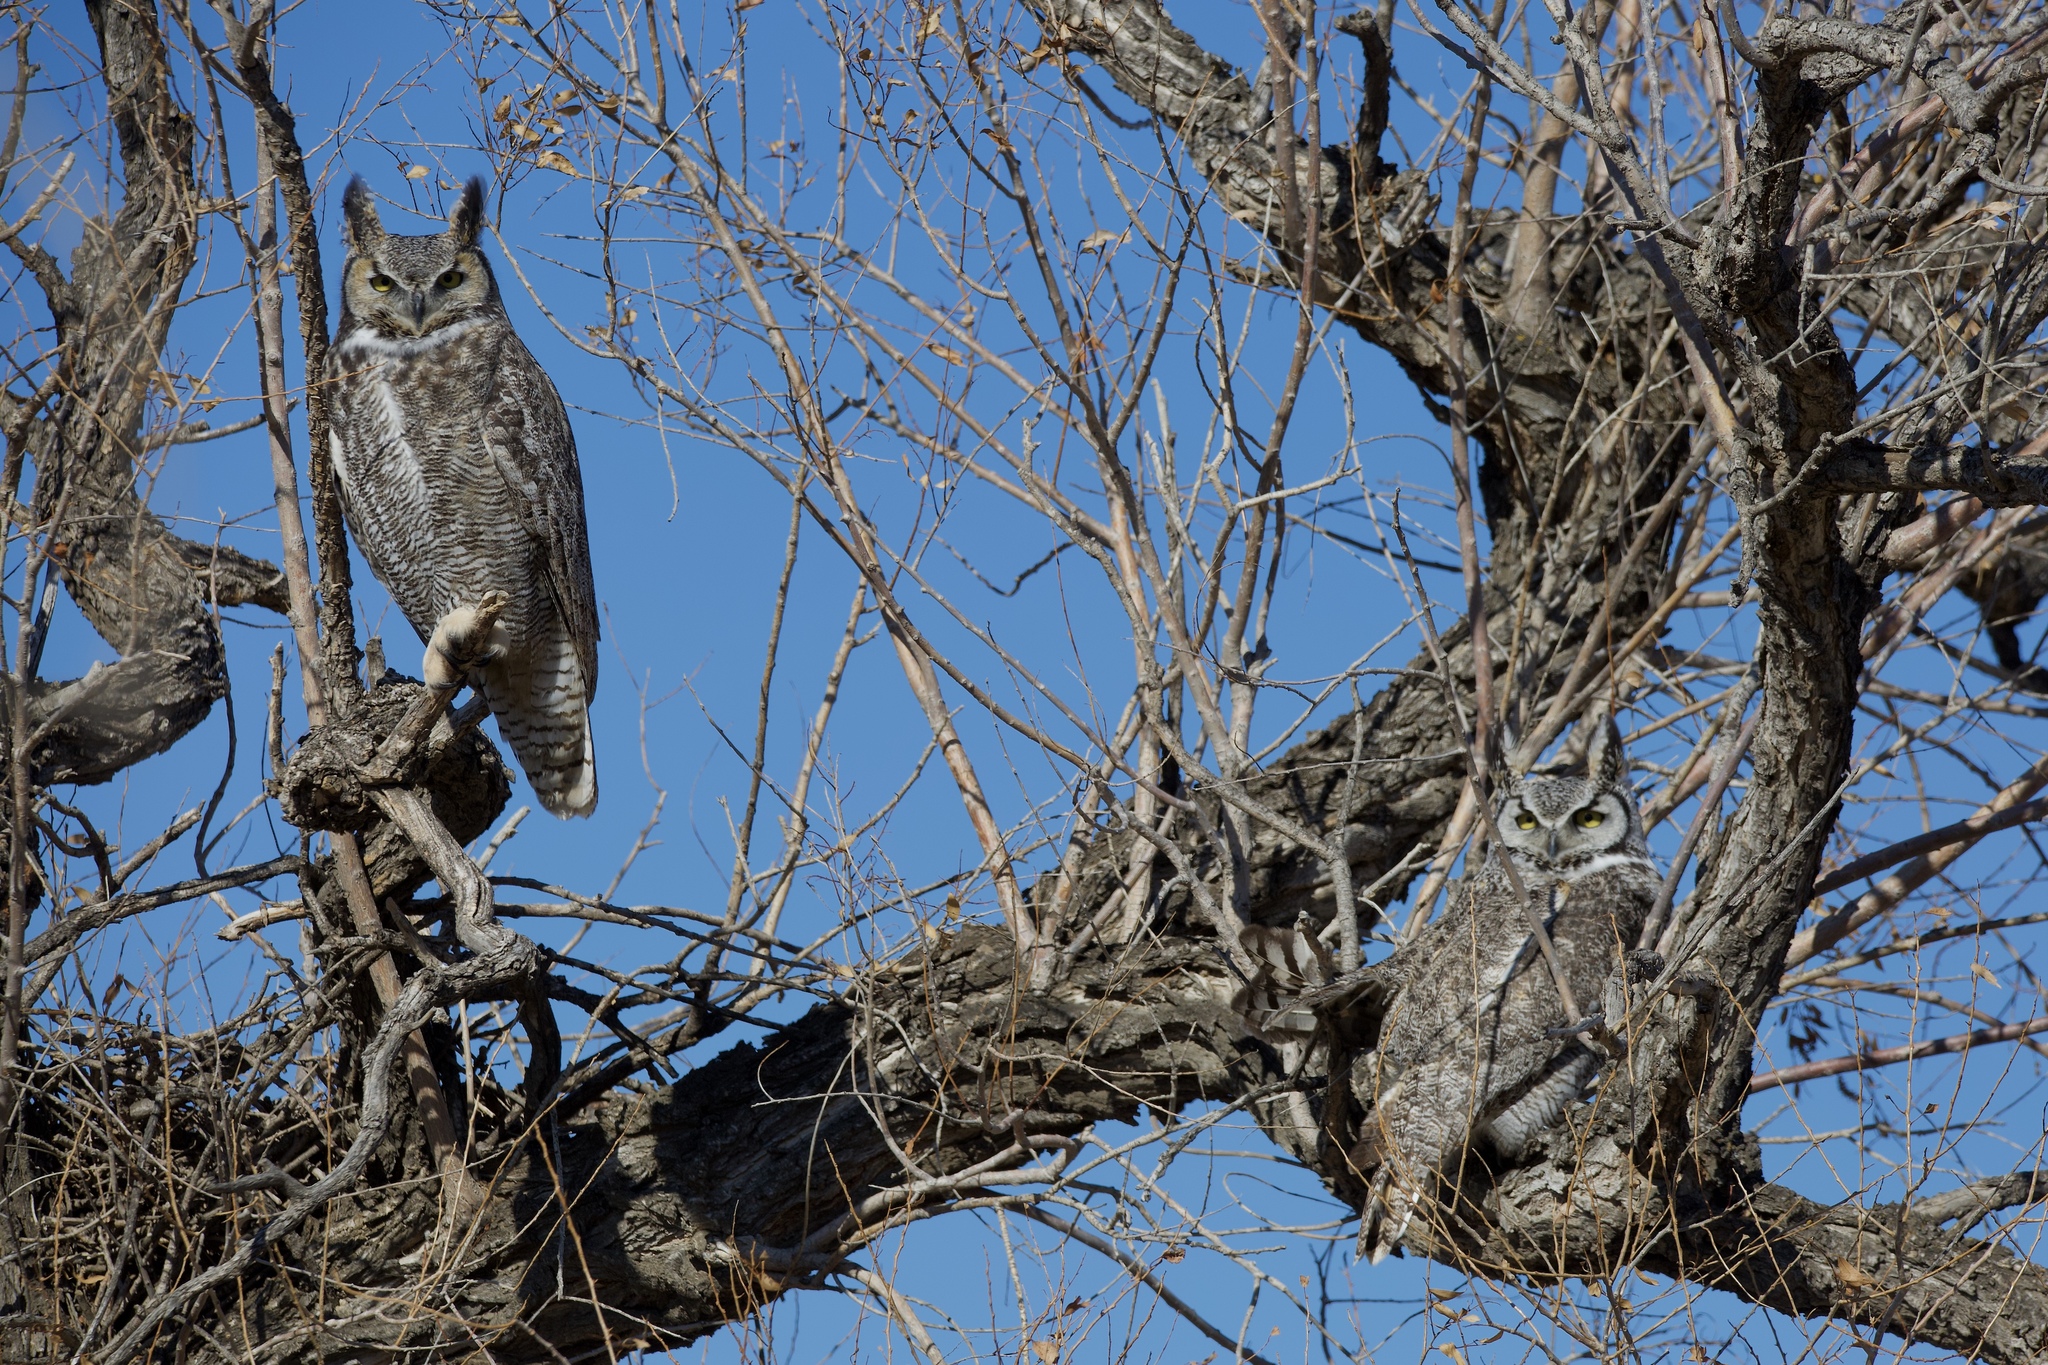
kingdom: Animalia
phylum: Chordata
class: Aves
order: Strigiformes
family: Strigidae
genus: Bubo
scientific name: Bubo virginianus
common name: Great horned owl
